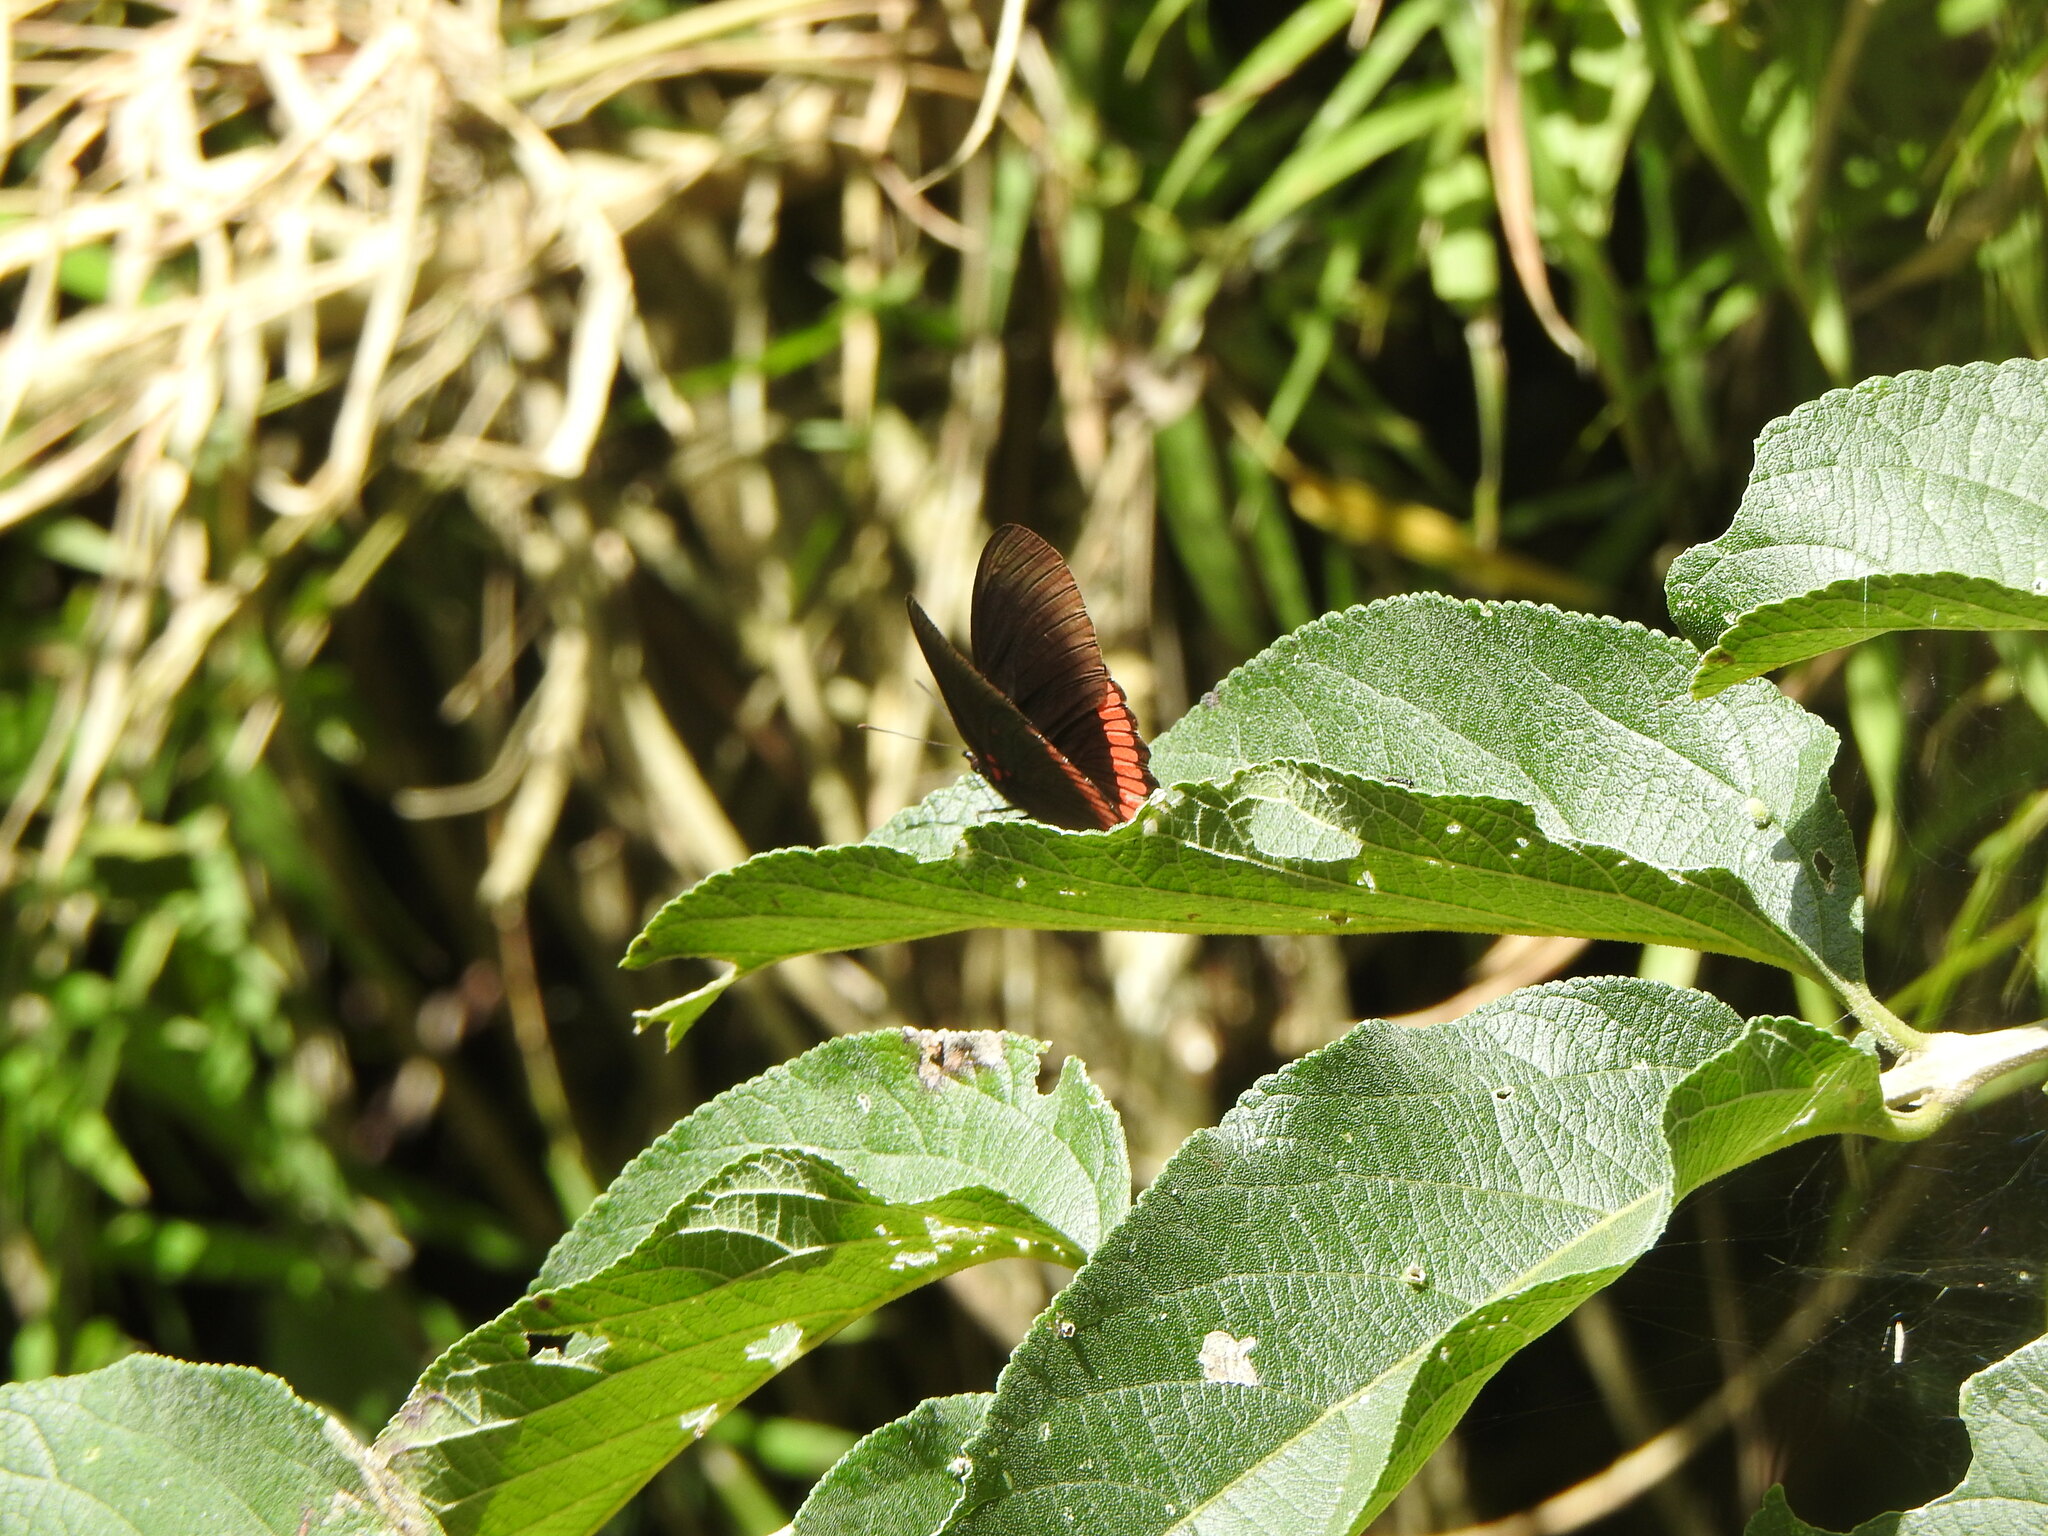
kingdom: Animalia
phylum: Arthropoda
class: Insecta
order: Lepidoptera
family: Sesiidae
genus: Sesia
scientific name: Sesia Biblis hyperia
